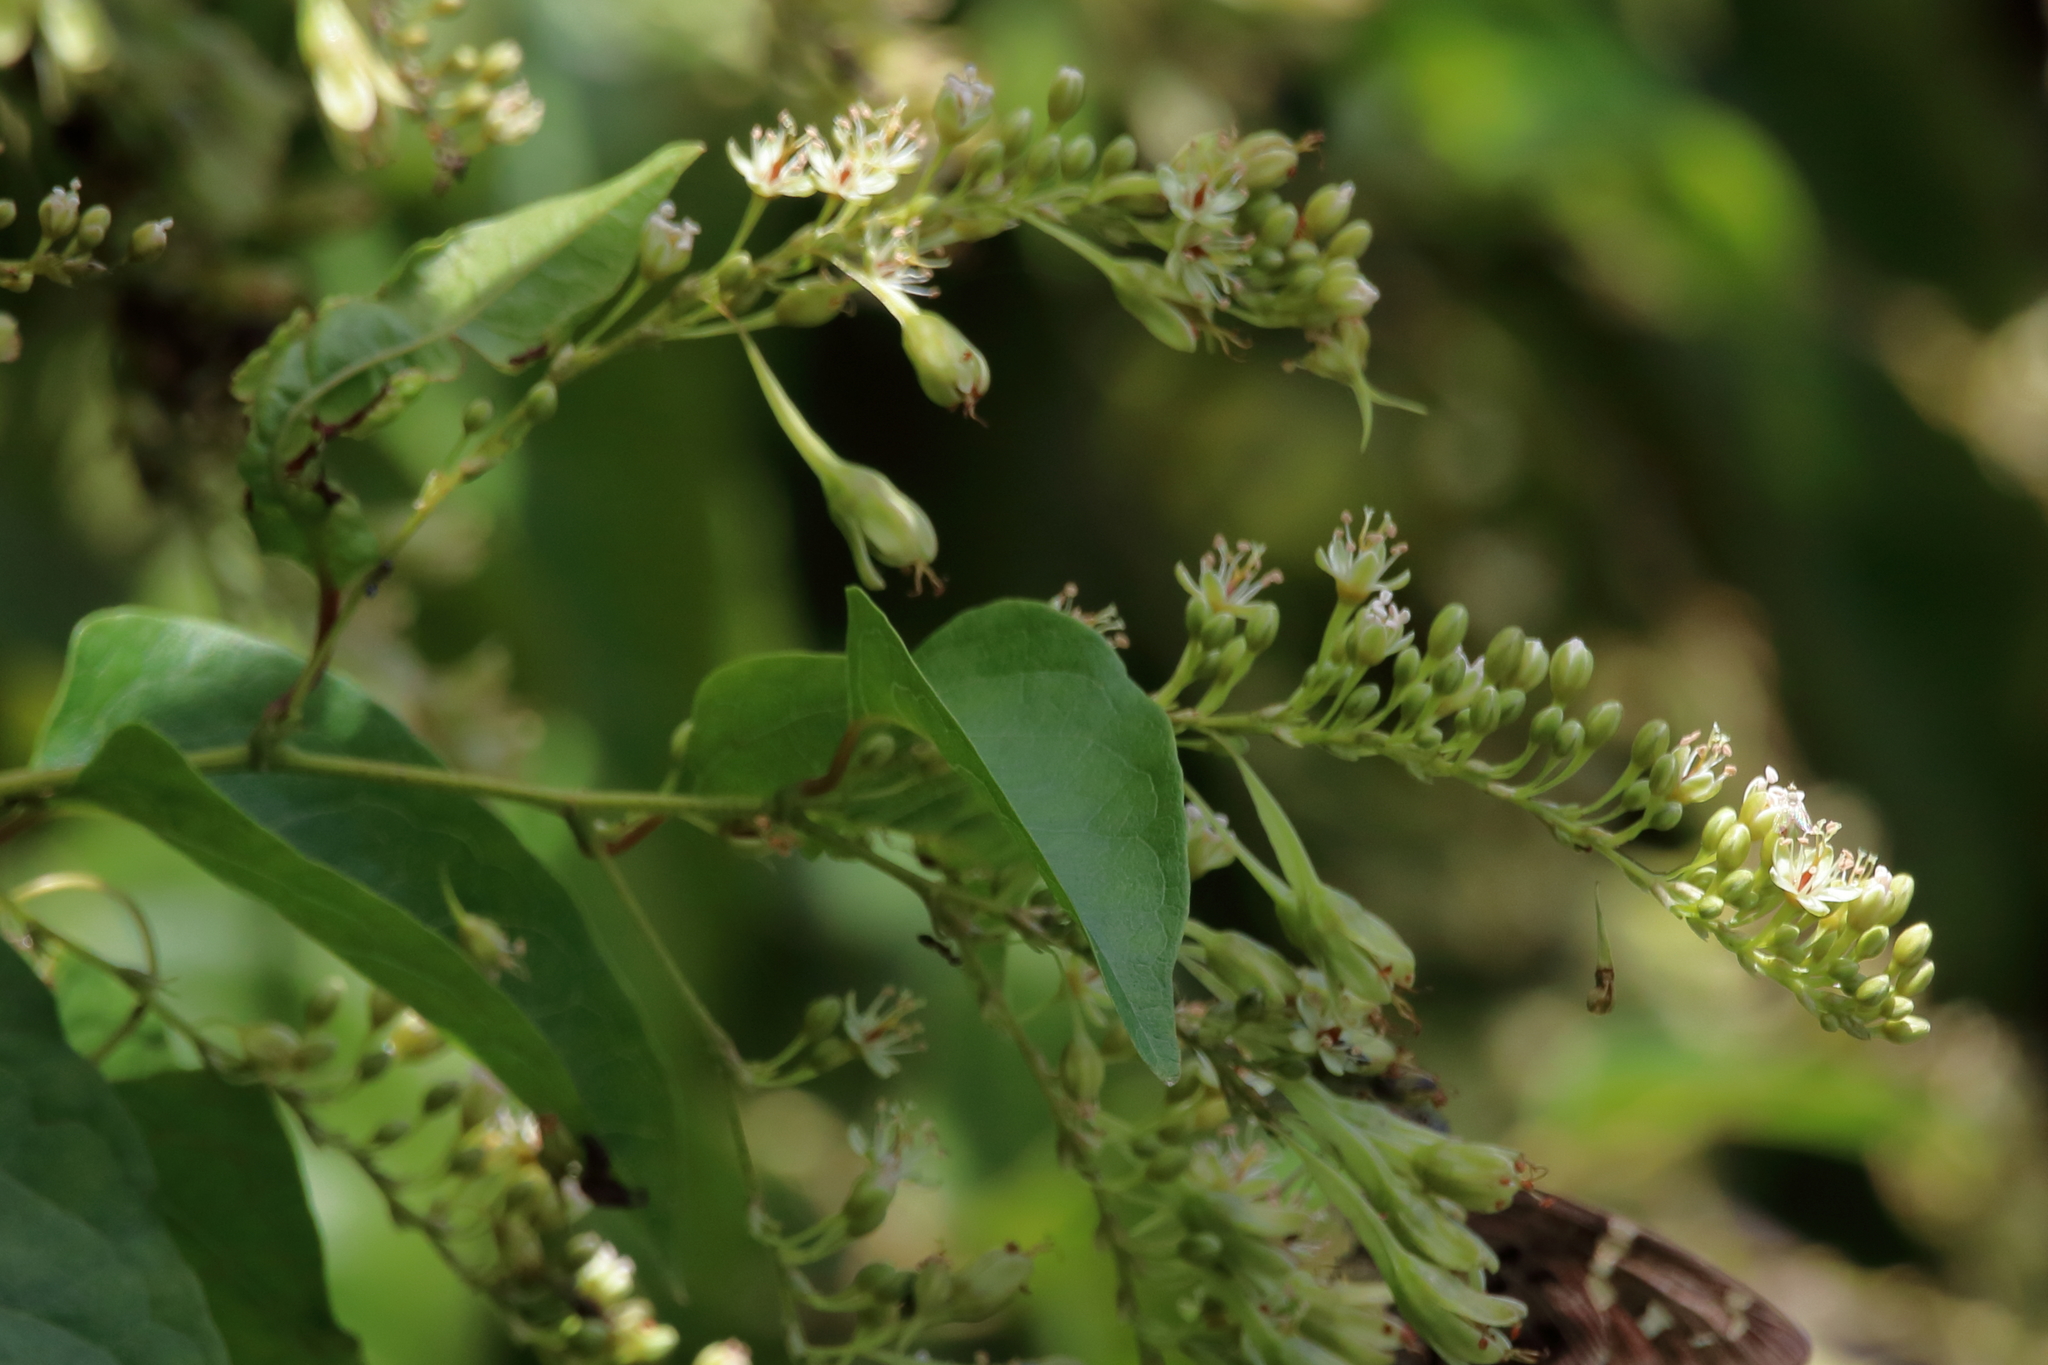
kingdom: Plantae
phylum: Tracheophyta
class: Magnoliopsida
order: Caryophyllales
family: Polygonaceae
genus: Brunnichia
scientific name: Brunnichia ovata
